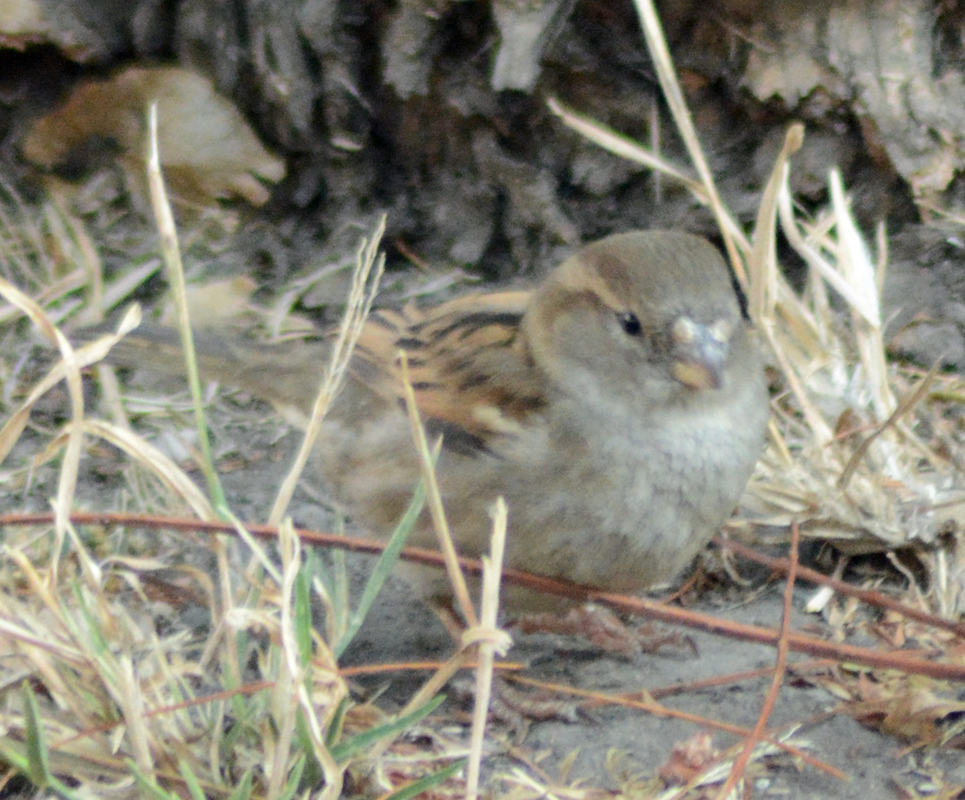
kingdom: Animalia
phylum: Chordata
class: Aves
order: Passeriformes
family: Passeridae
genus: Passer
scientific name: Passer domesticus
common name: House sparrow
